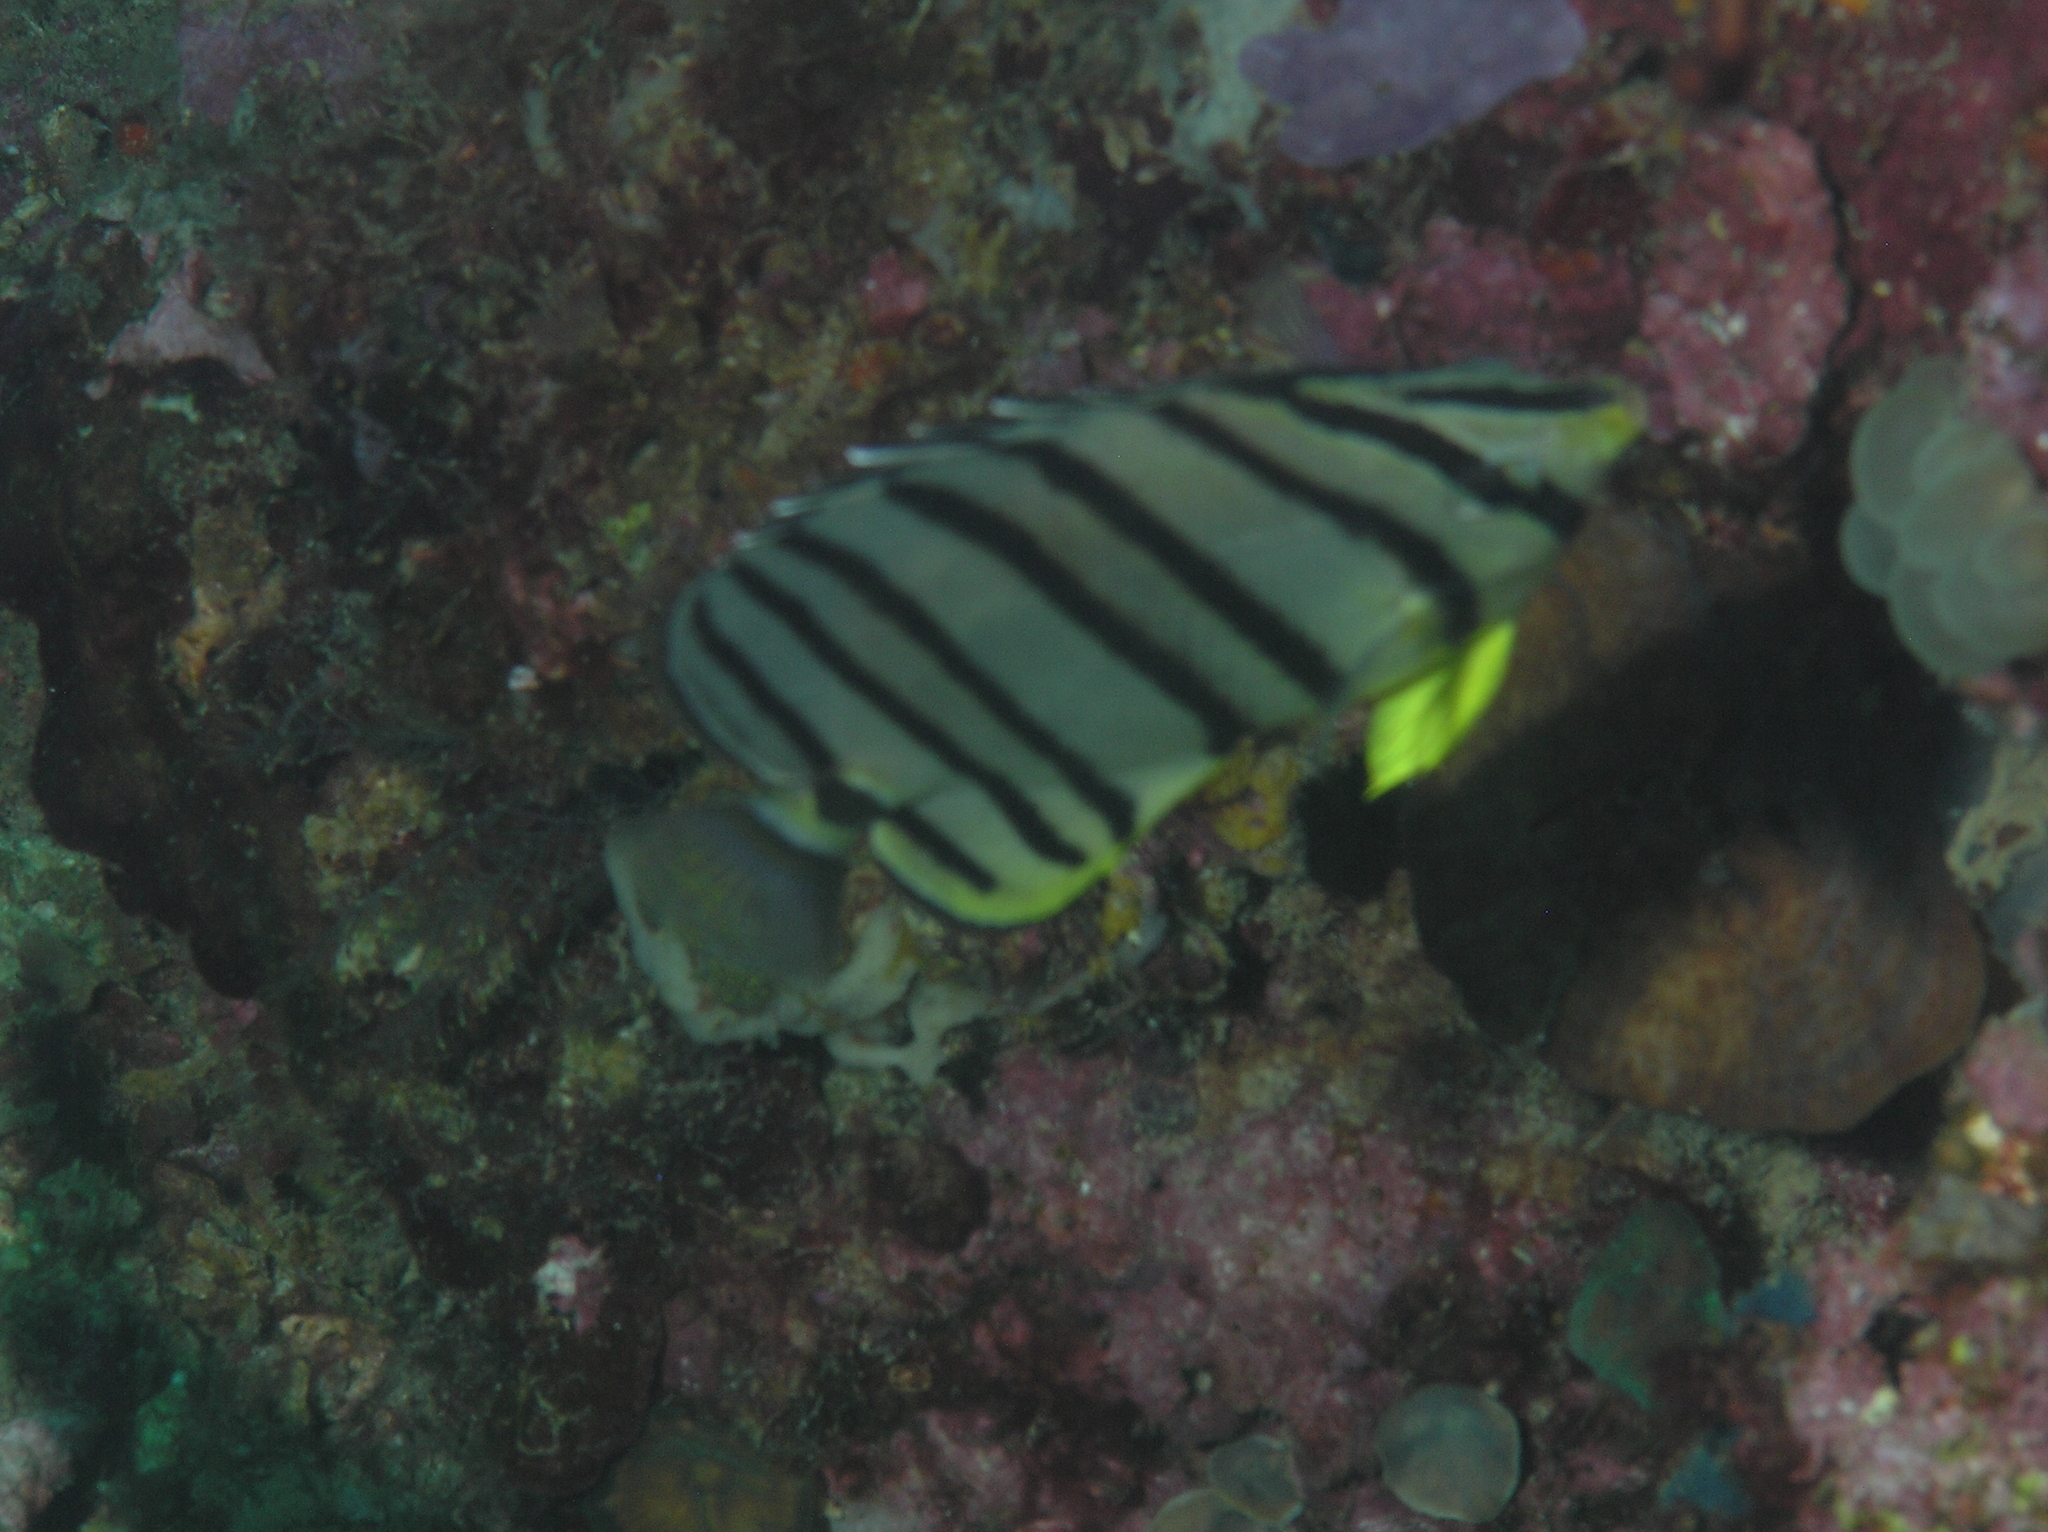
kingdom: Animalia
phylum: Chordata
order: Perciformes
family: Chaetodontidae
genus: Chaetodon
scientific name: Chaetodon octofasciatus
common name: Eightband butterflyfish
